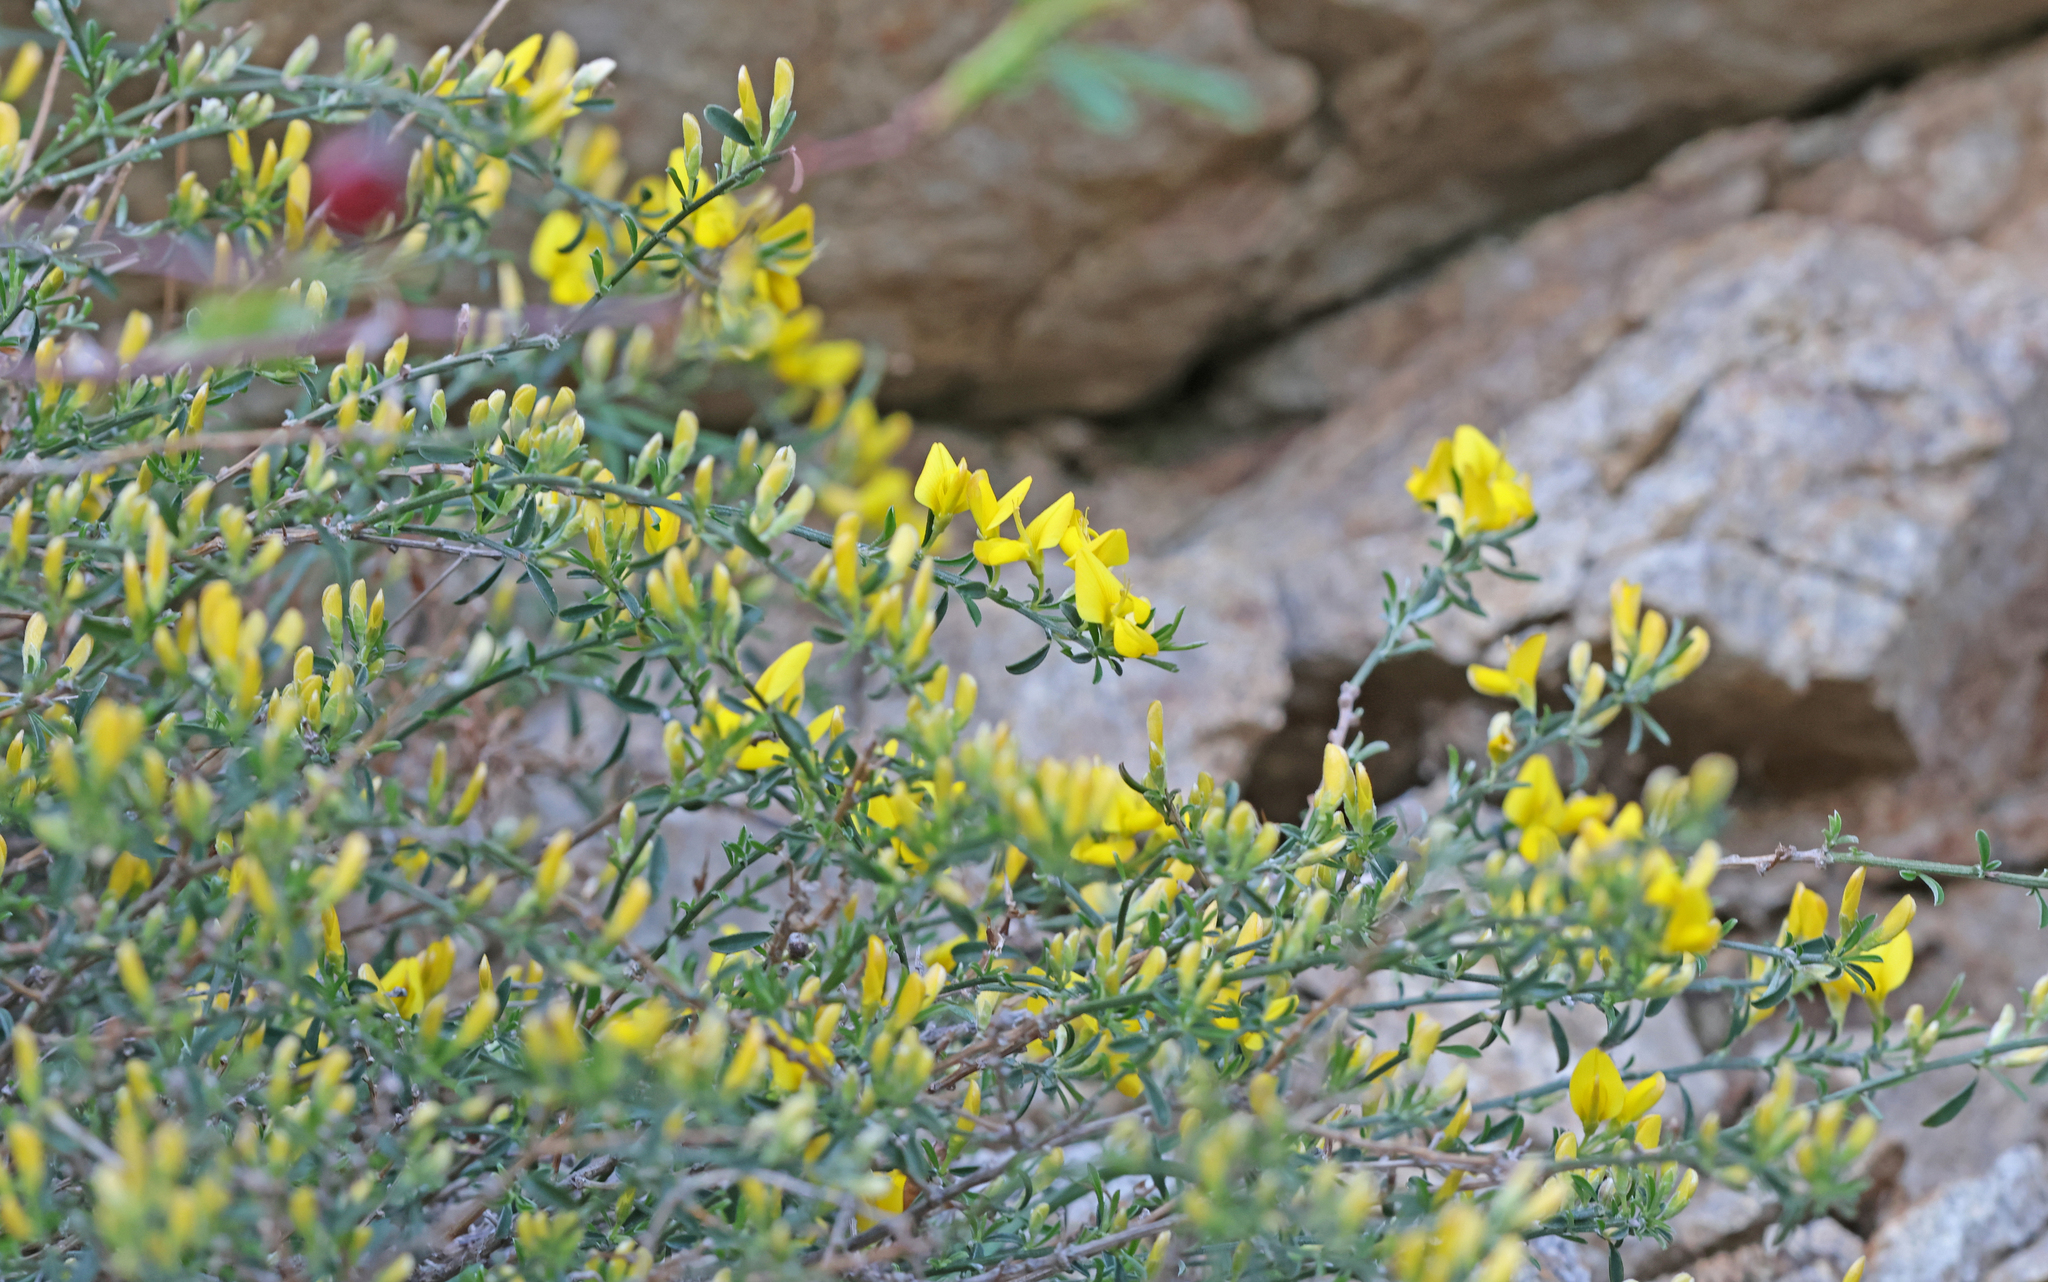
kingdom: Plantae
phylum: Tracheophyta
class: Magnoliopsida
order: Fabales
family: Fabaceae
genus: Genista
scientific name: Genista pilosa
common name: Hairy greenweed
